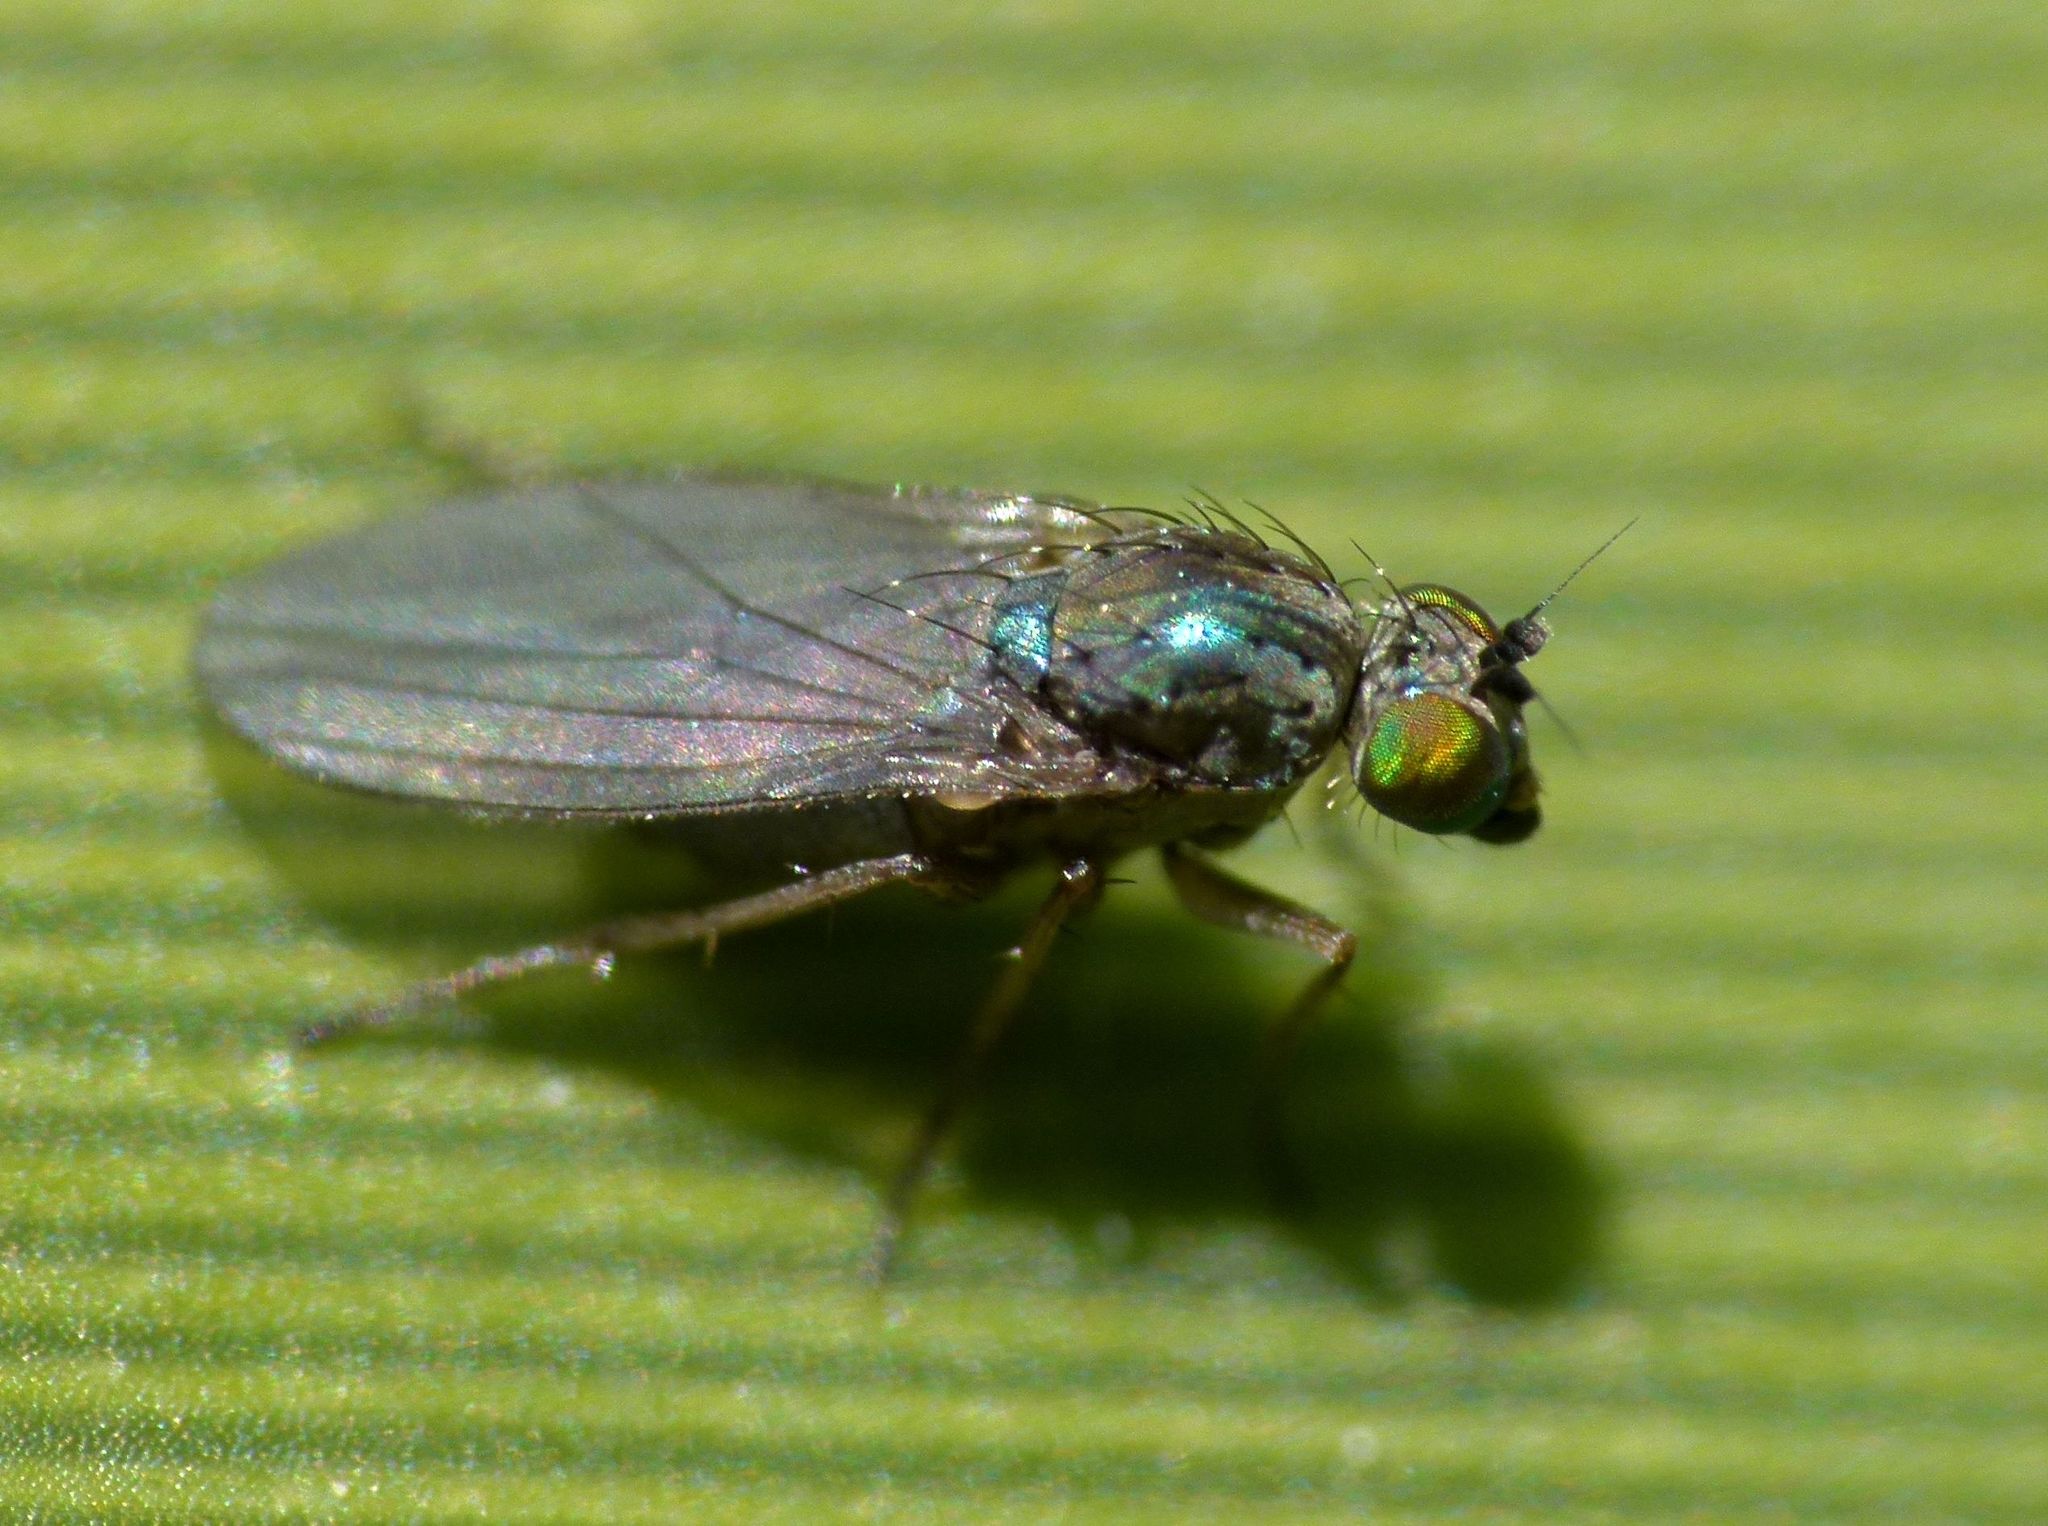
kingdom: Animalia
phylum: Arthropoda
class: Insecta
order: Diptera
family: Dolichopodidae
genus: Chrysotimus
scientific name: Chrysotimus scutatus
